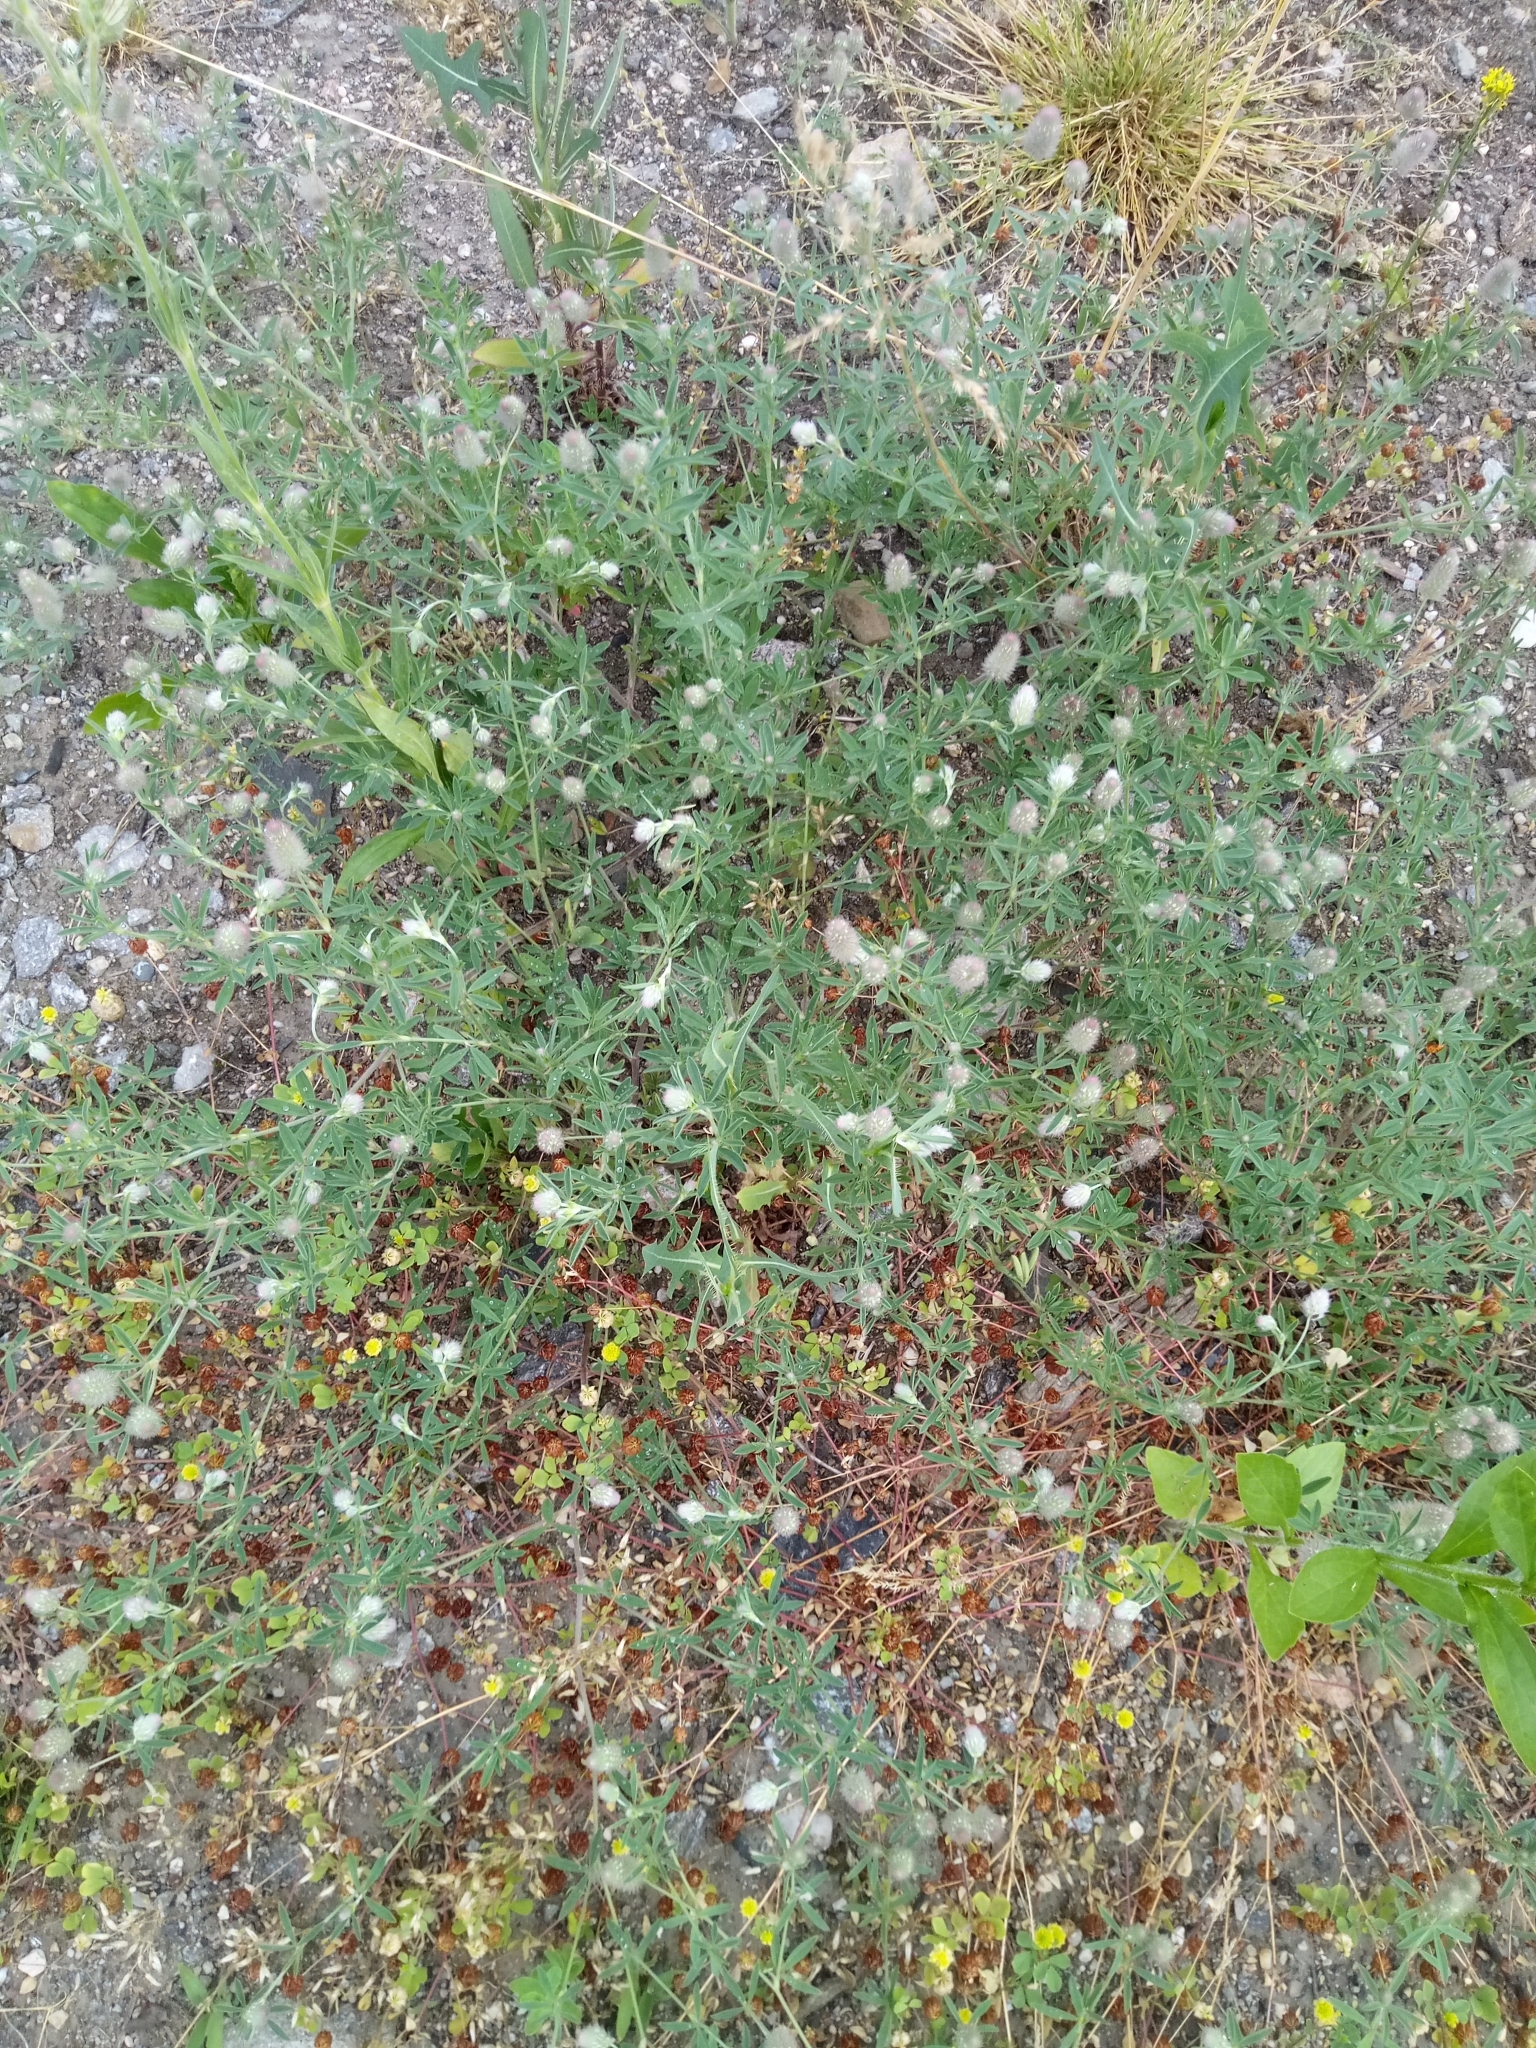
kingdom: Plantae
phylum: Tracheophyta
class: Magnoliopsida
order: Fabales
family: Fabaceae
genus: Trifolium
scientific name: Trifolium arvense
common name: Hare's-foot clover
